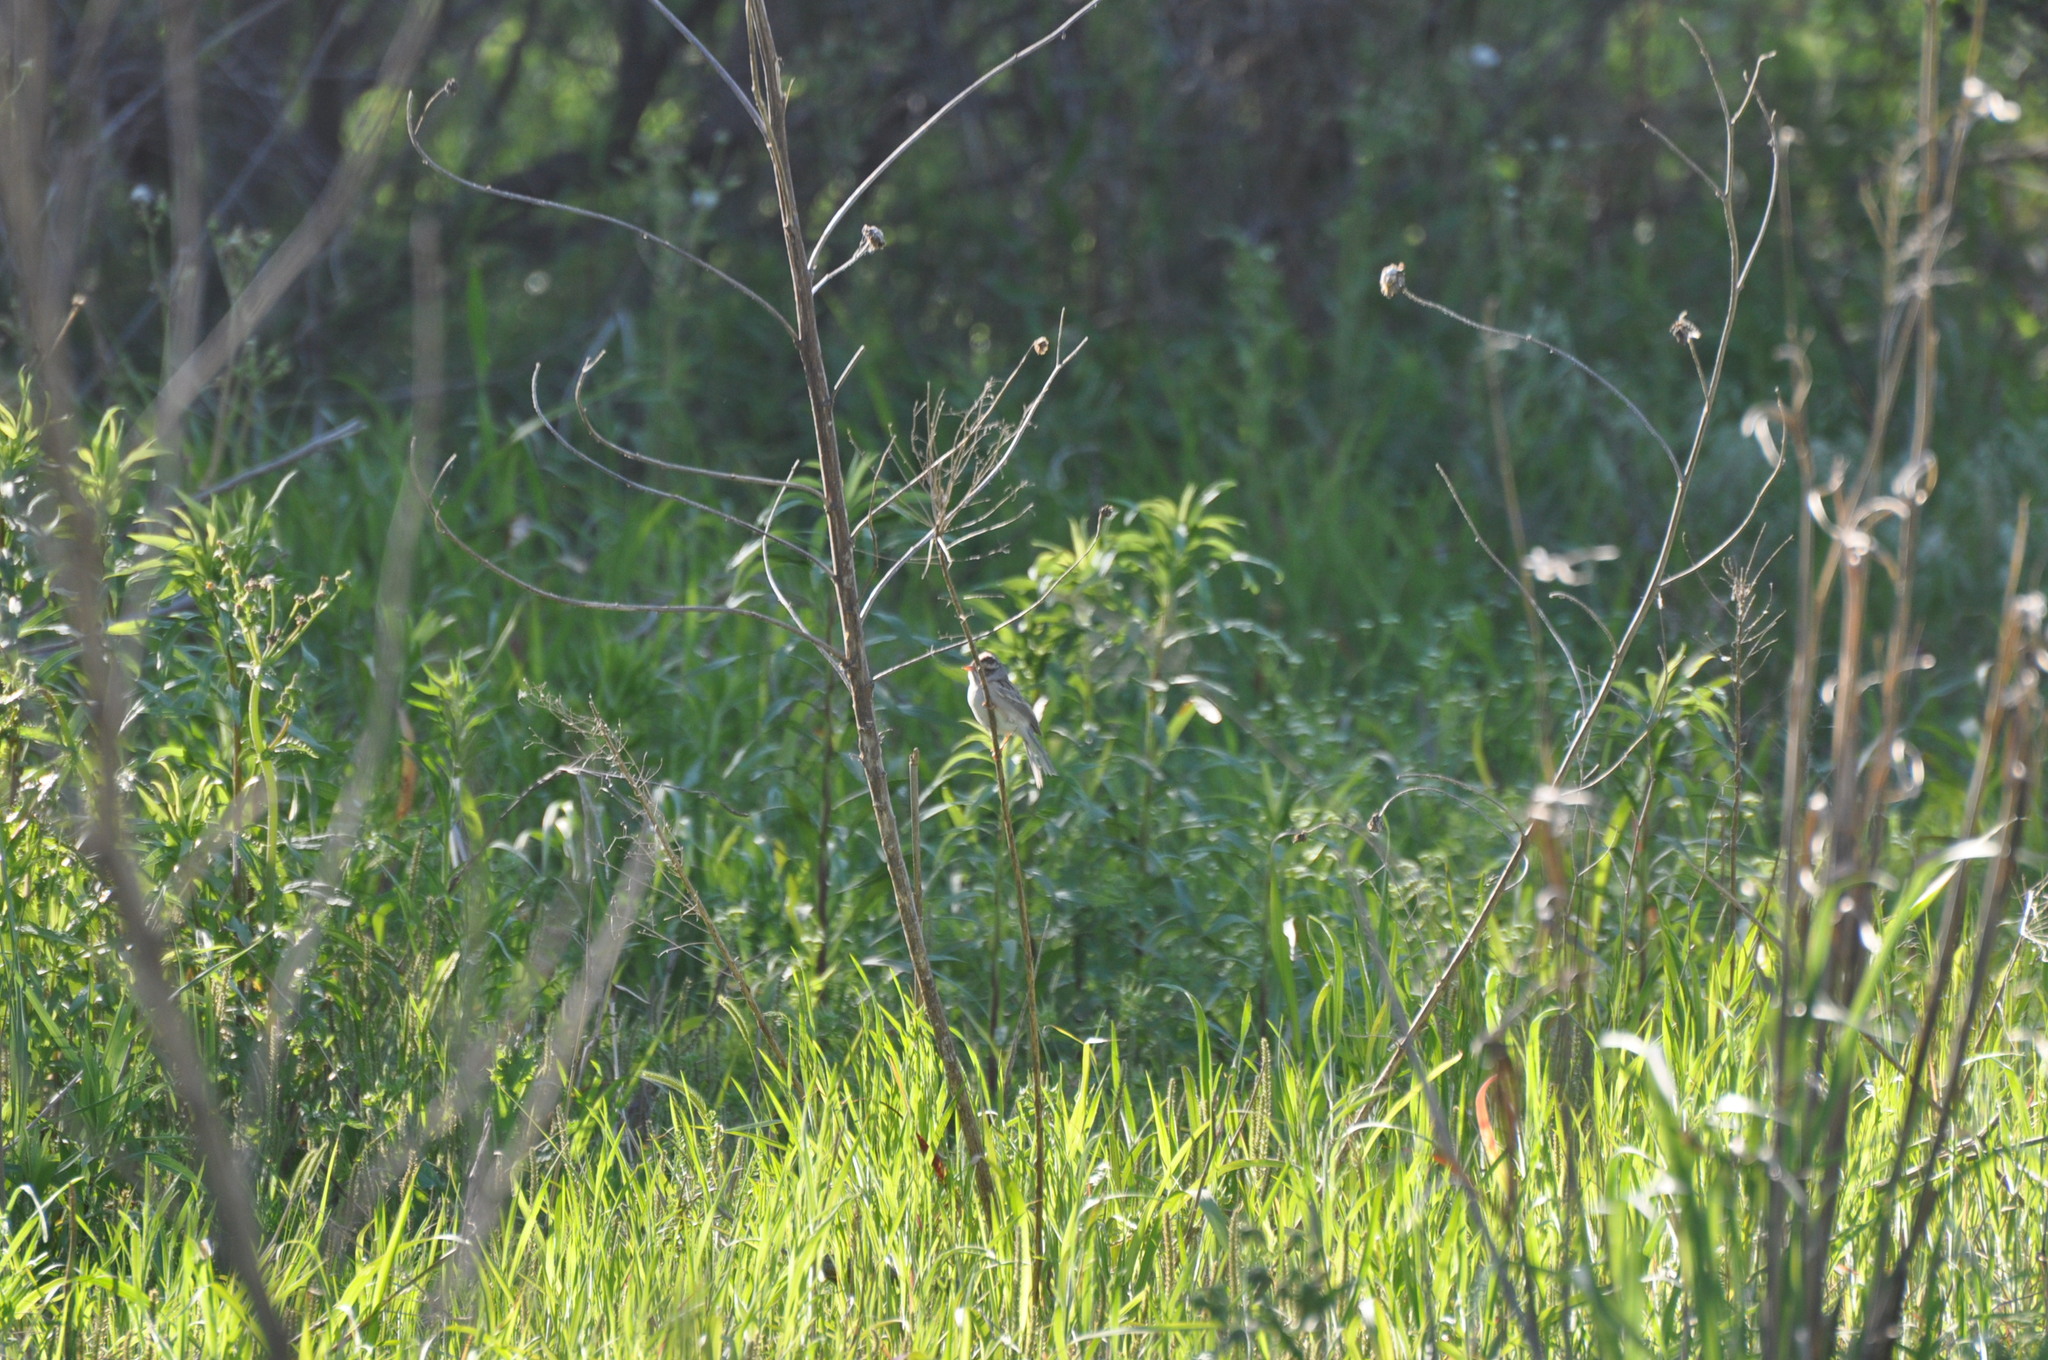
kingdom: Animalia
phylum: Chordata
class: Aves
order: Passeriformes
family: Passerellidae
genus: Spizella
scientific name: Spizella pallida
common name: Clay-colored sparrow
